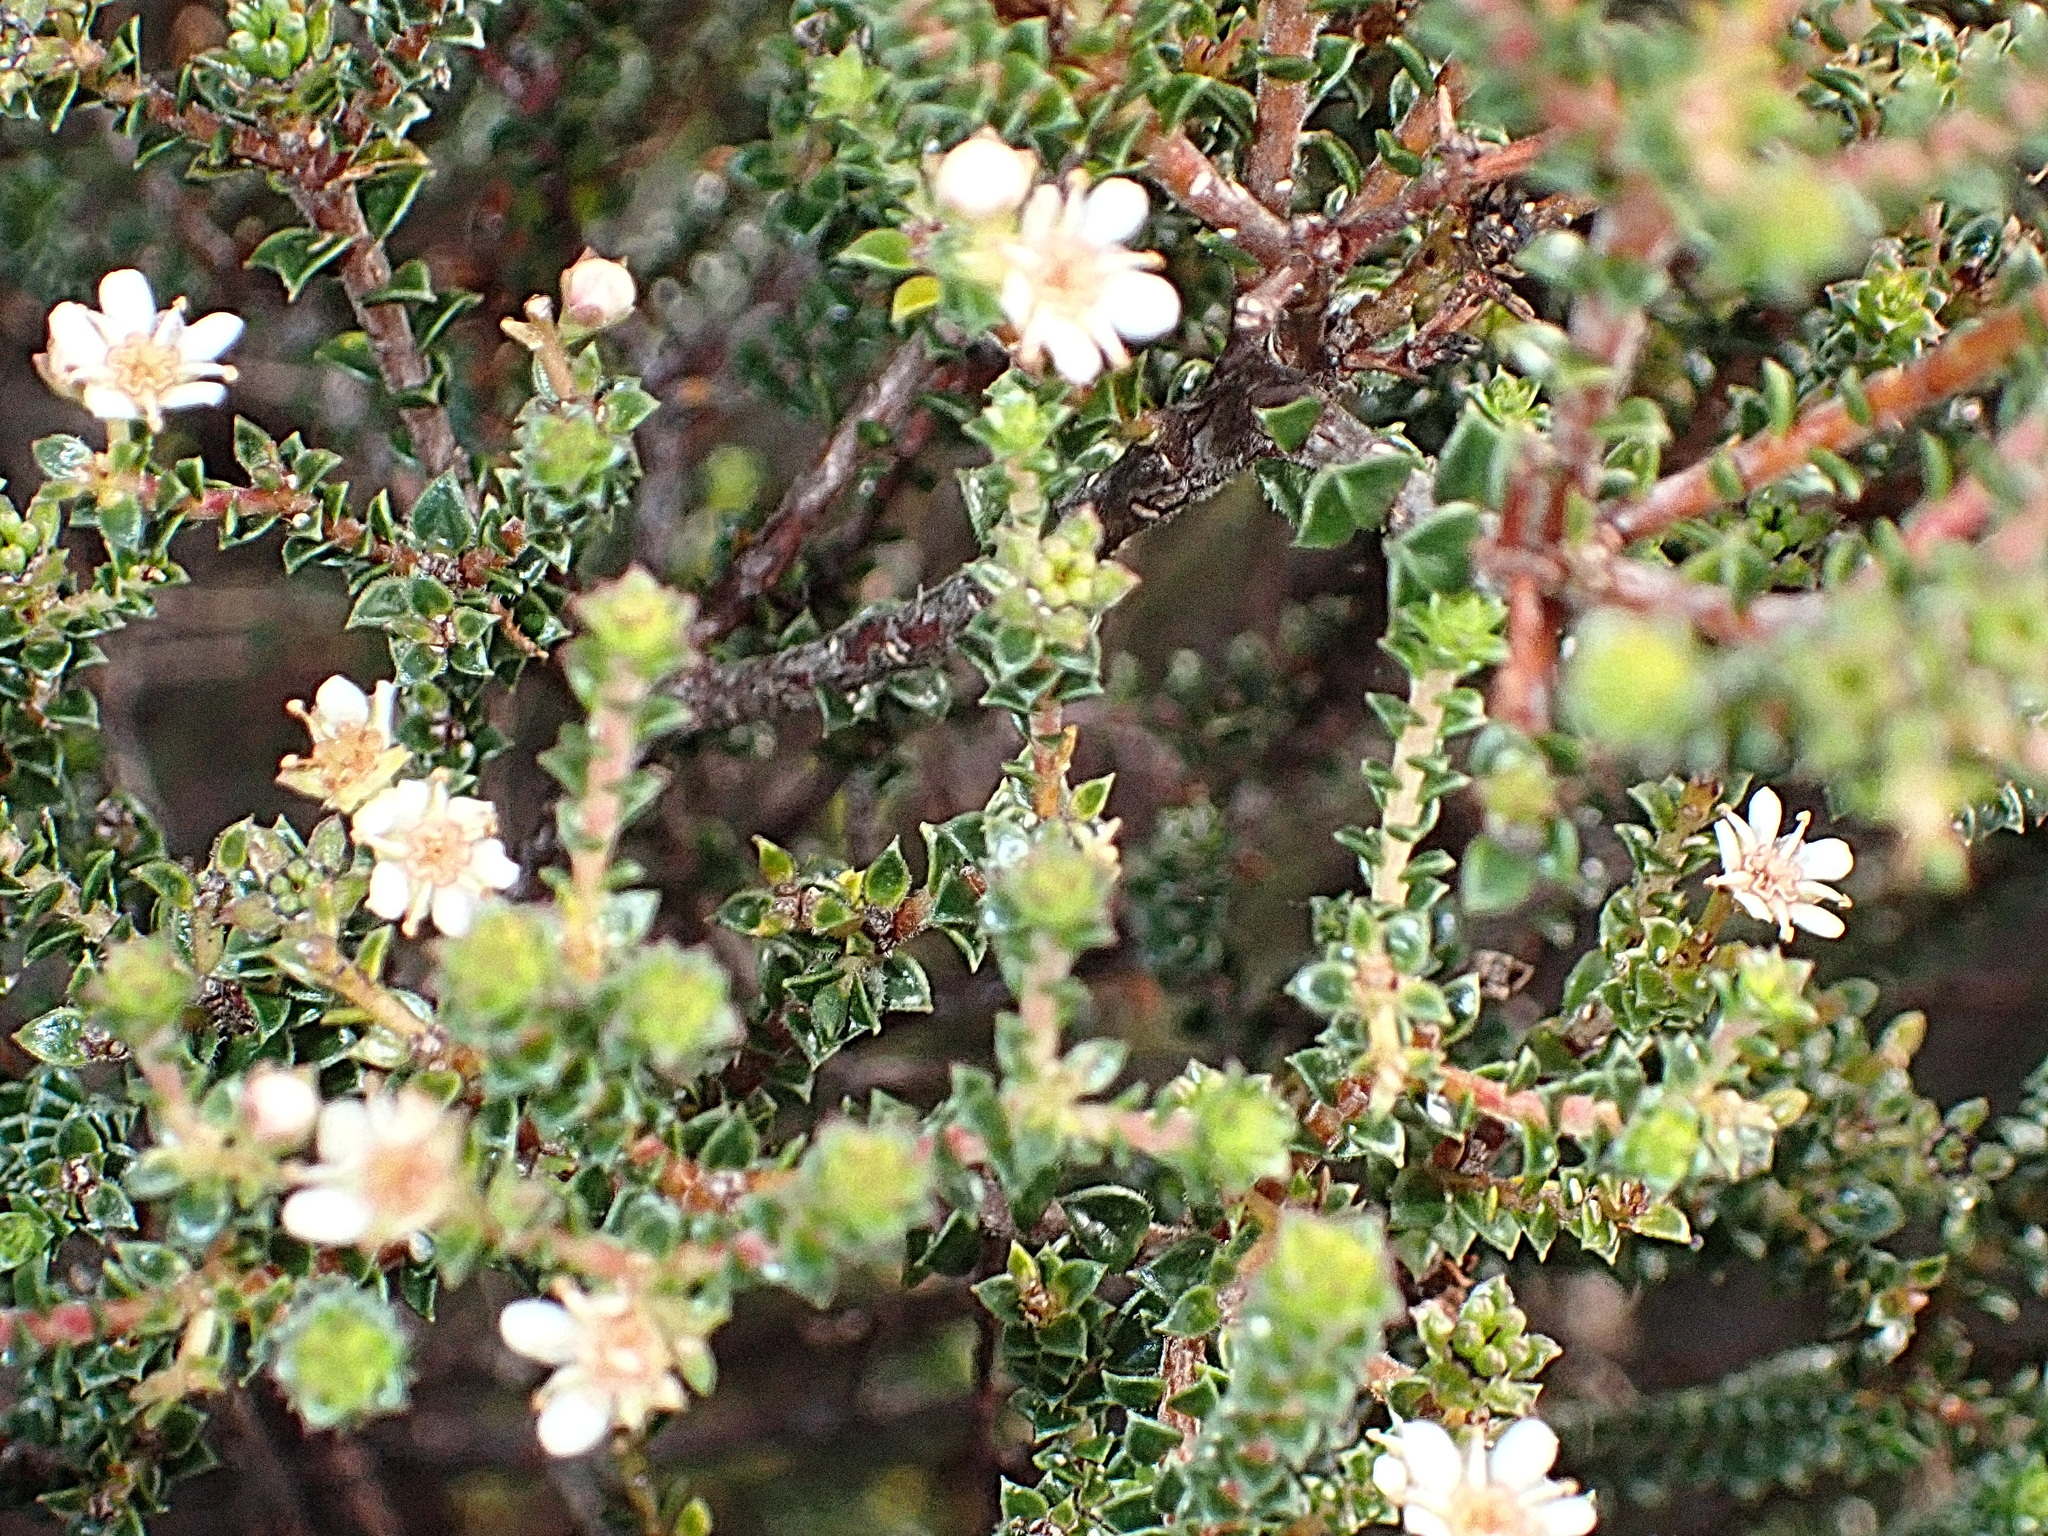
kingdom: Plantae
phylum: Tracheophyta
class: Magnoliopsida
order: Sapindales
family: Rutaceae
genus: Diosma
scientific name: Diosma echinulata
